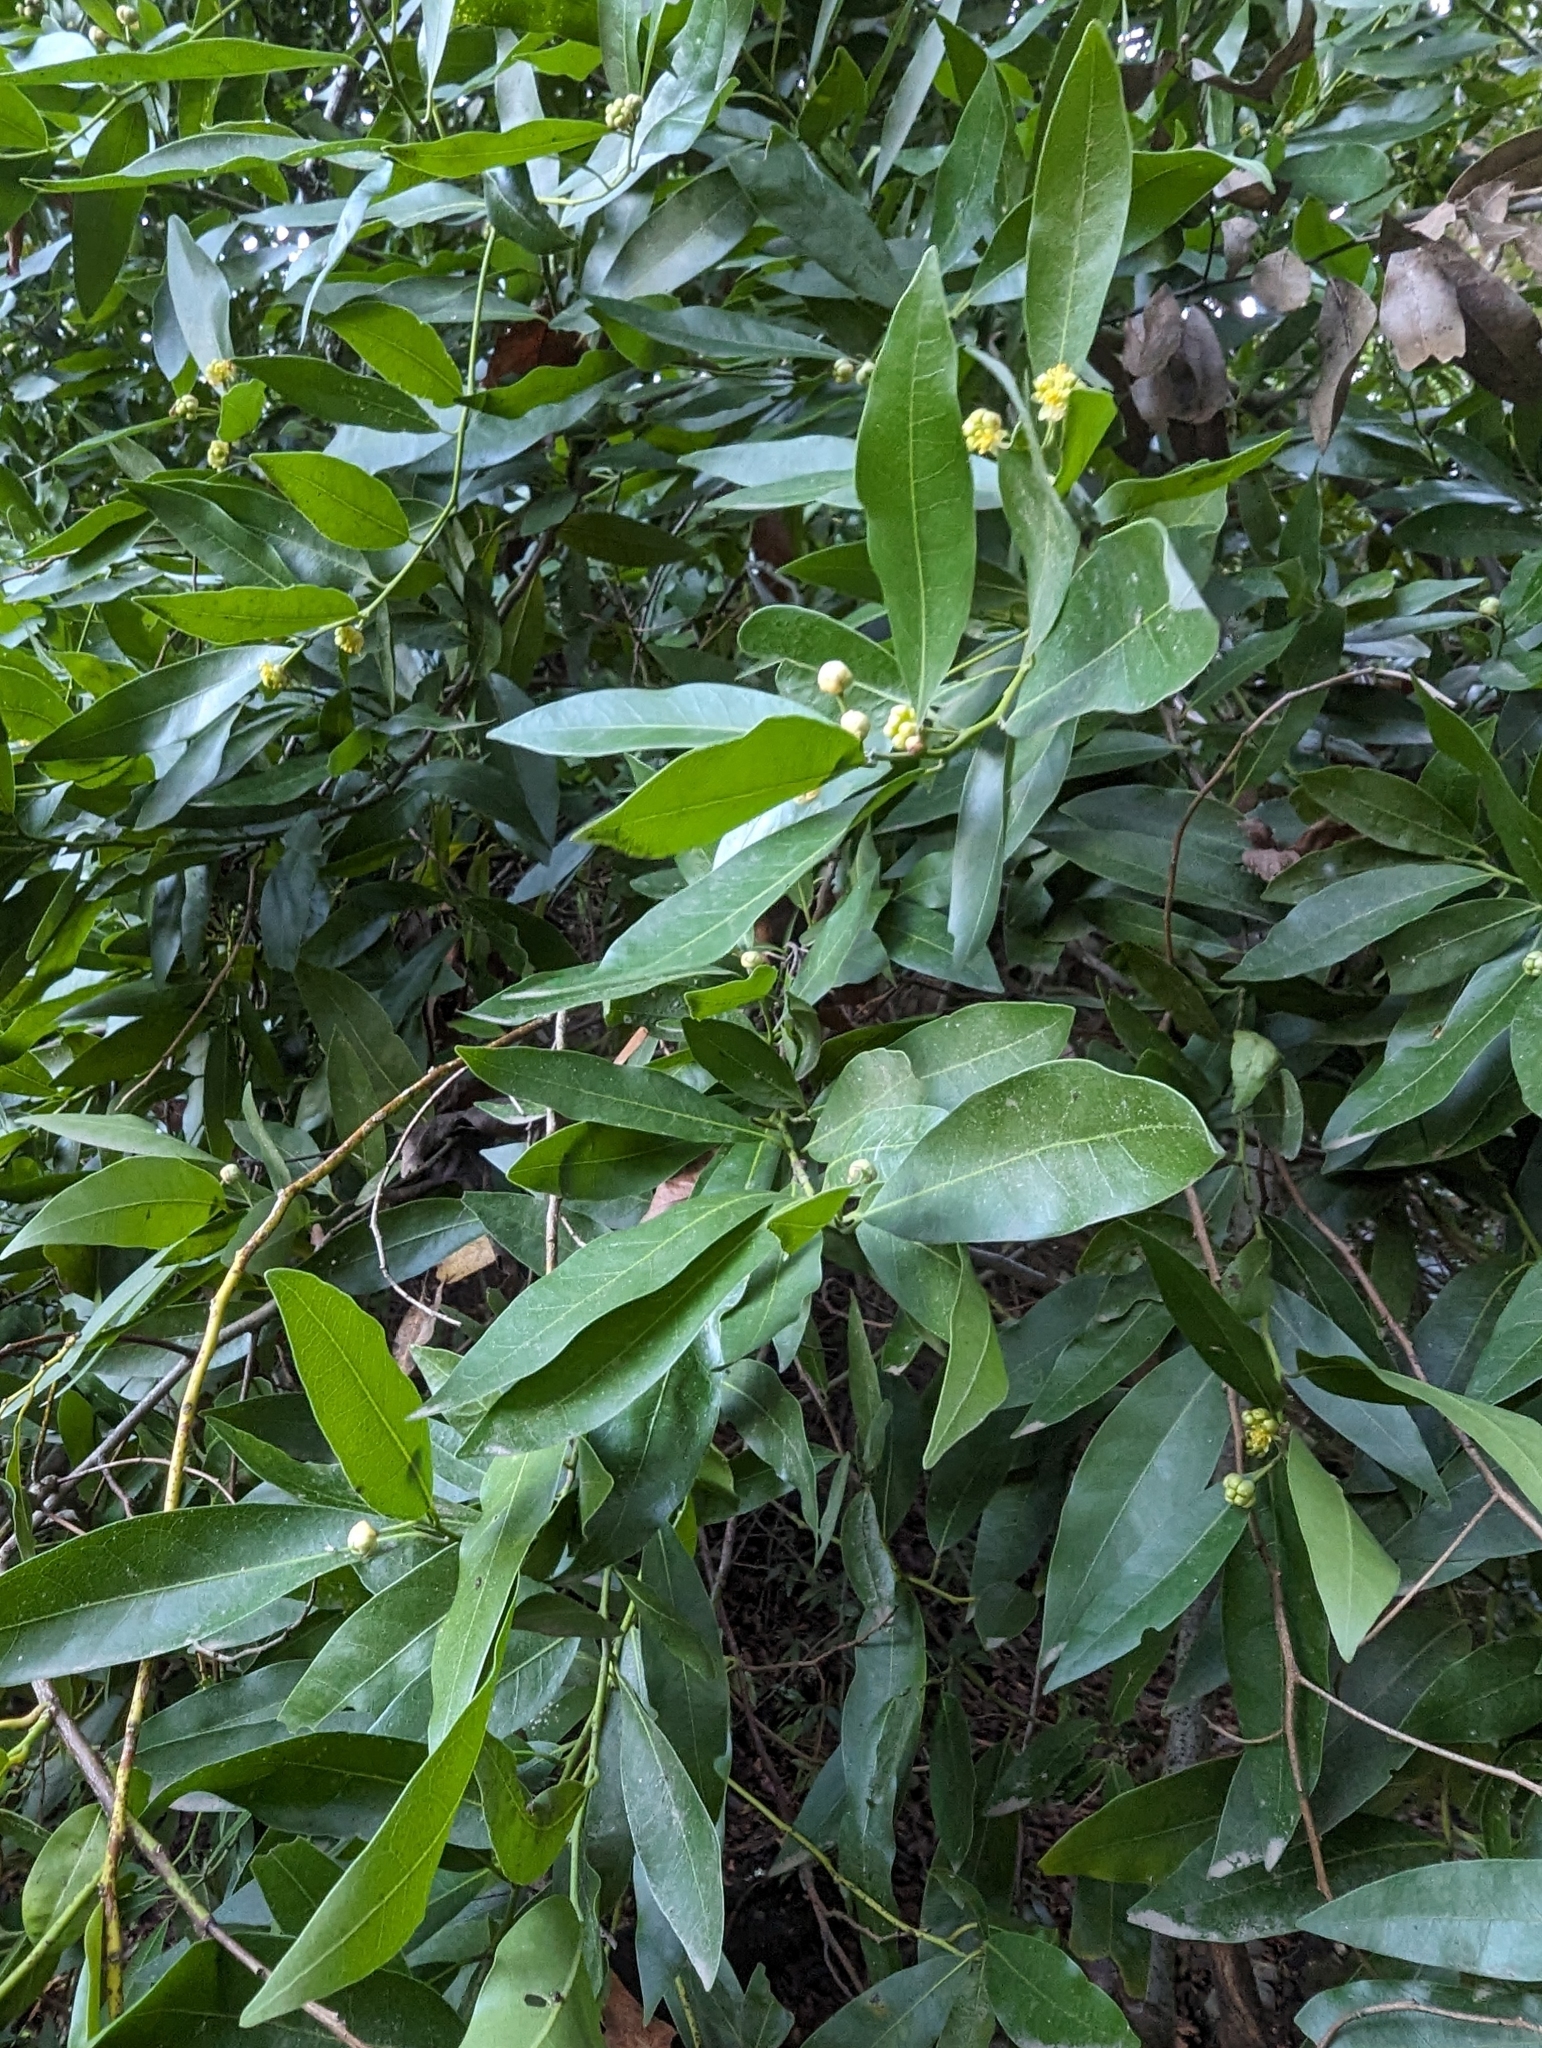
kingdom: Plantae
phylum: Tracheophyta
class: Magnoliopsida
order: Laurales
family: Lauraceae
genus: Umbellularia
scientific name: Umbellularia californica
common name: California bay
